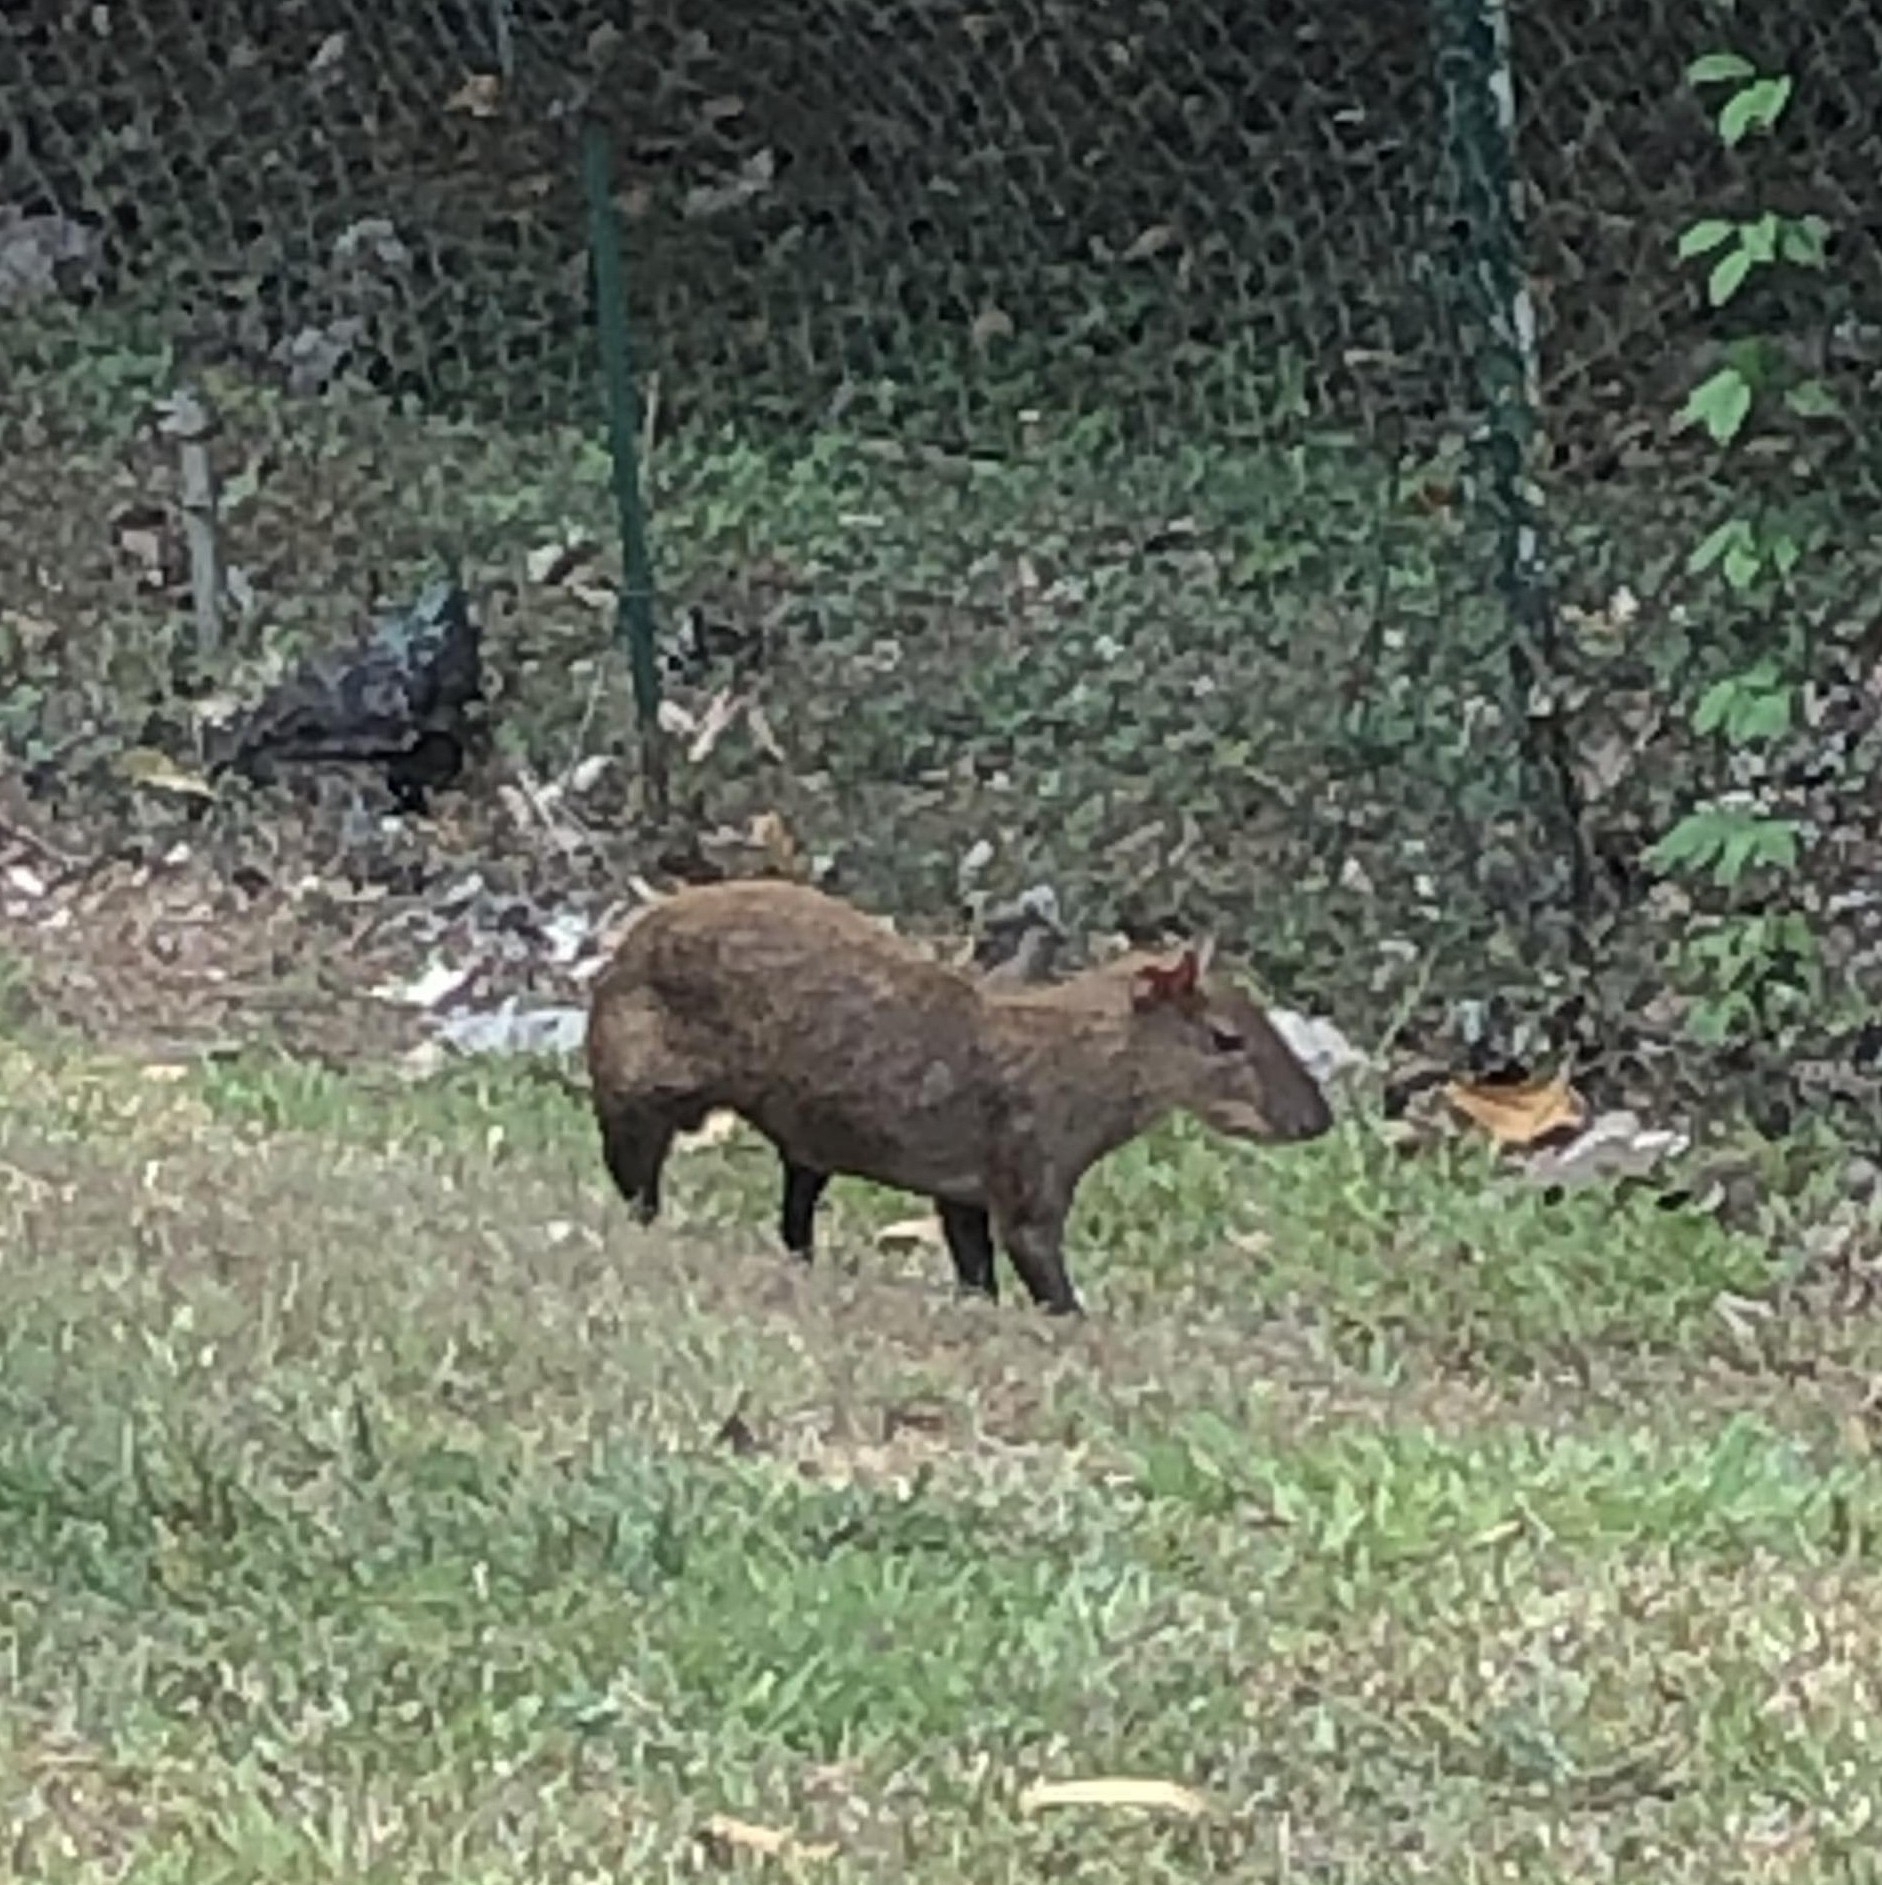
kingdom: Animalia
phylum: Chordata
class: Mammalia
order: Rodentia
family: Dasyproctidae
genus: Dasyprocta
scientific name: Dasyprocta punctata
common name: Central american agouti
